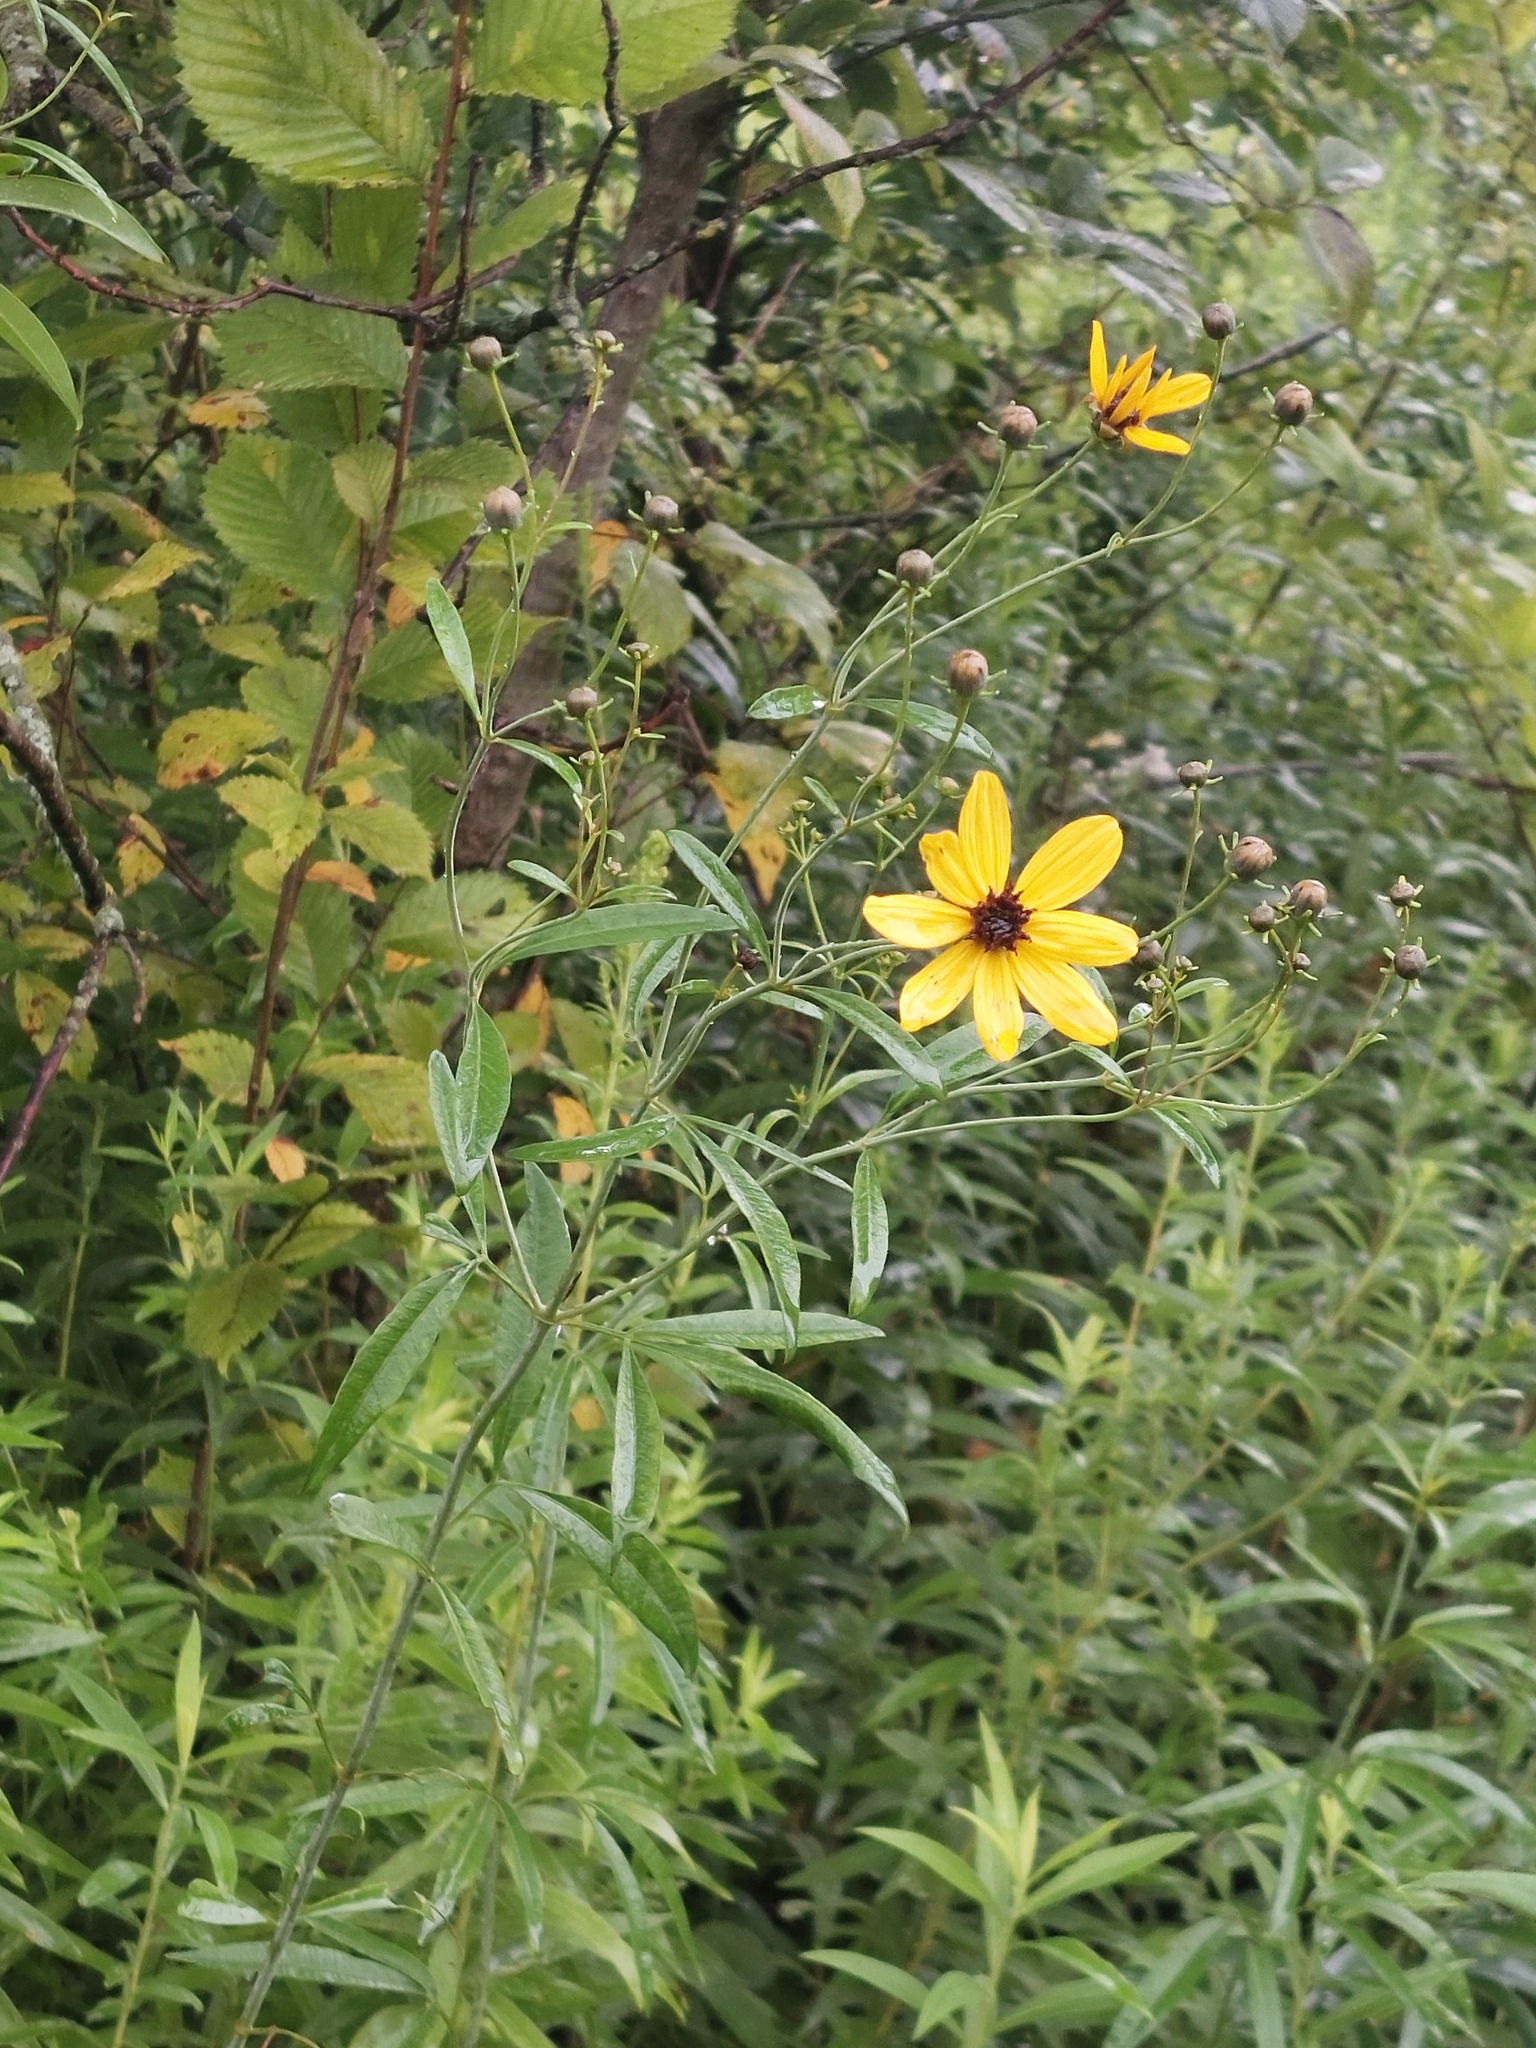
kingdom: Plantae
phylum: Tracheophyta
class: Magnoliopsida
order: Asterales
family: Asteraceae
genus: Coreopsis
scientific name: Coreopsis tripteris
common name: Tall coreopsis
